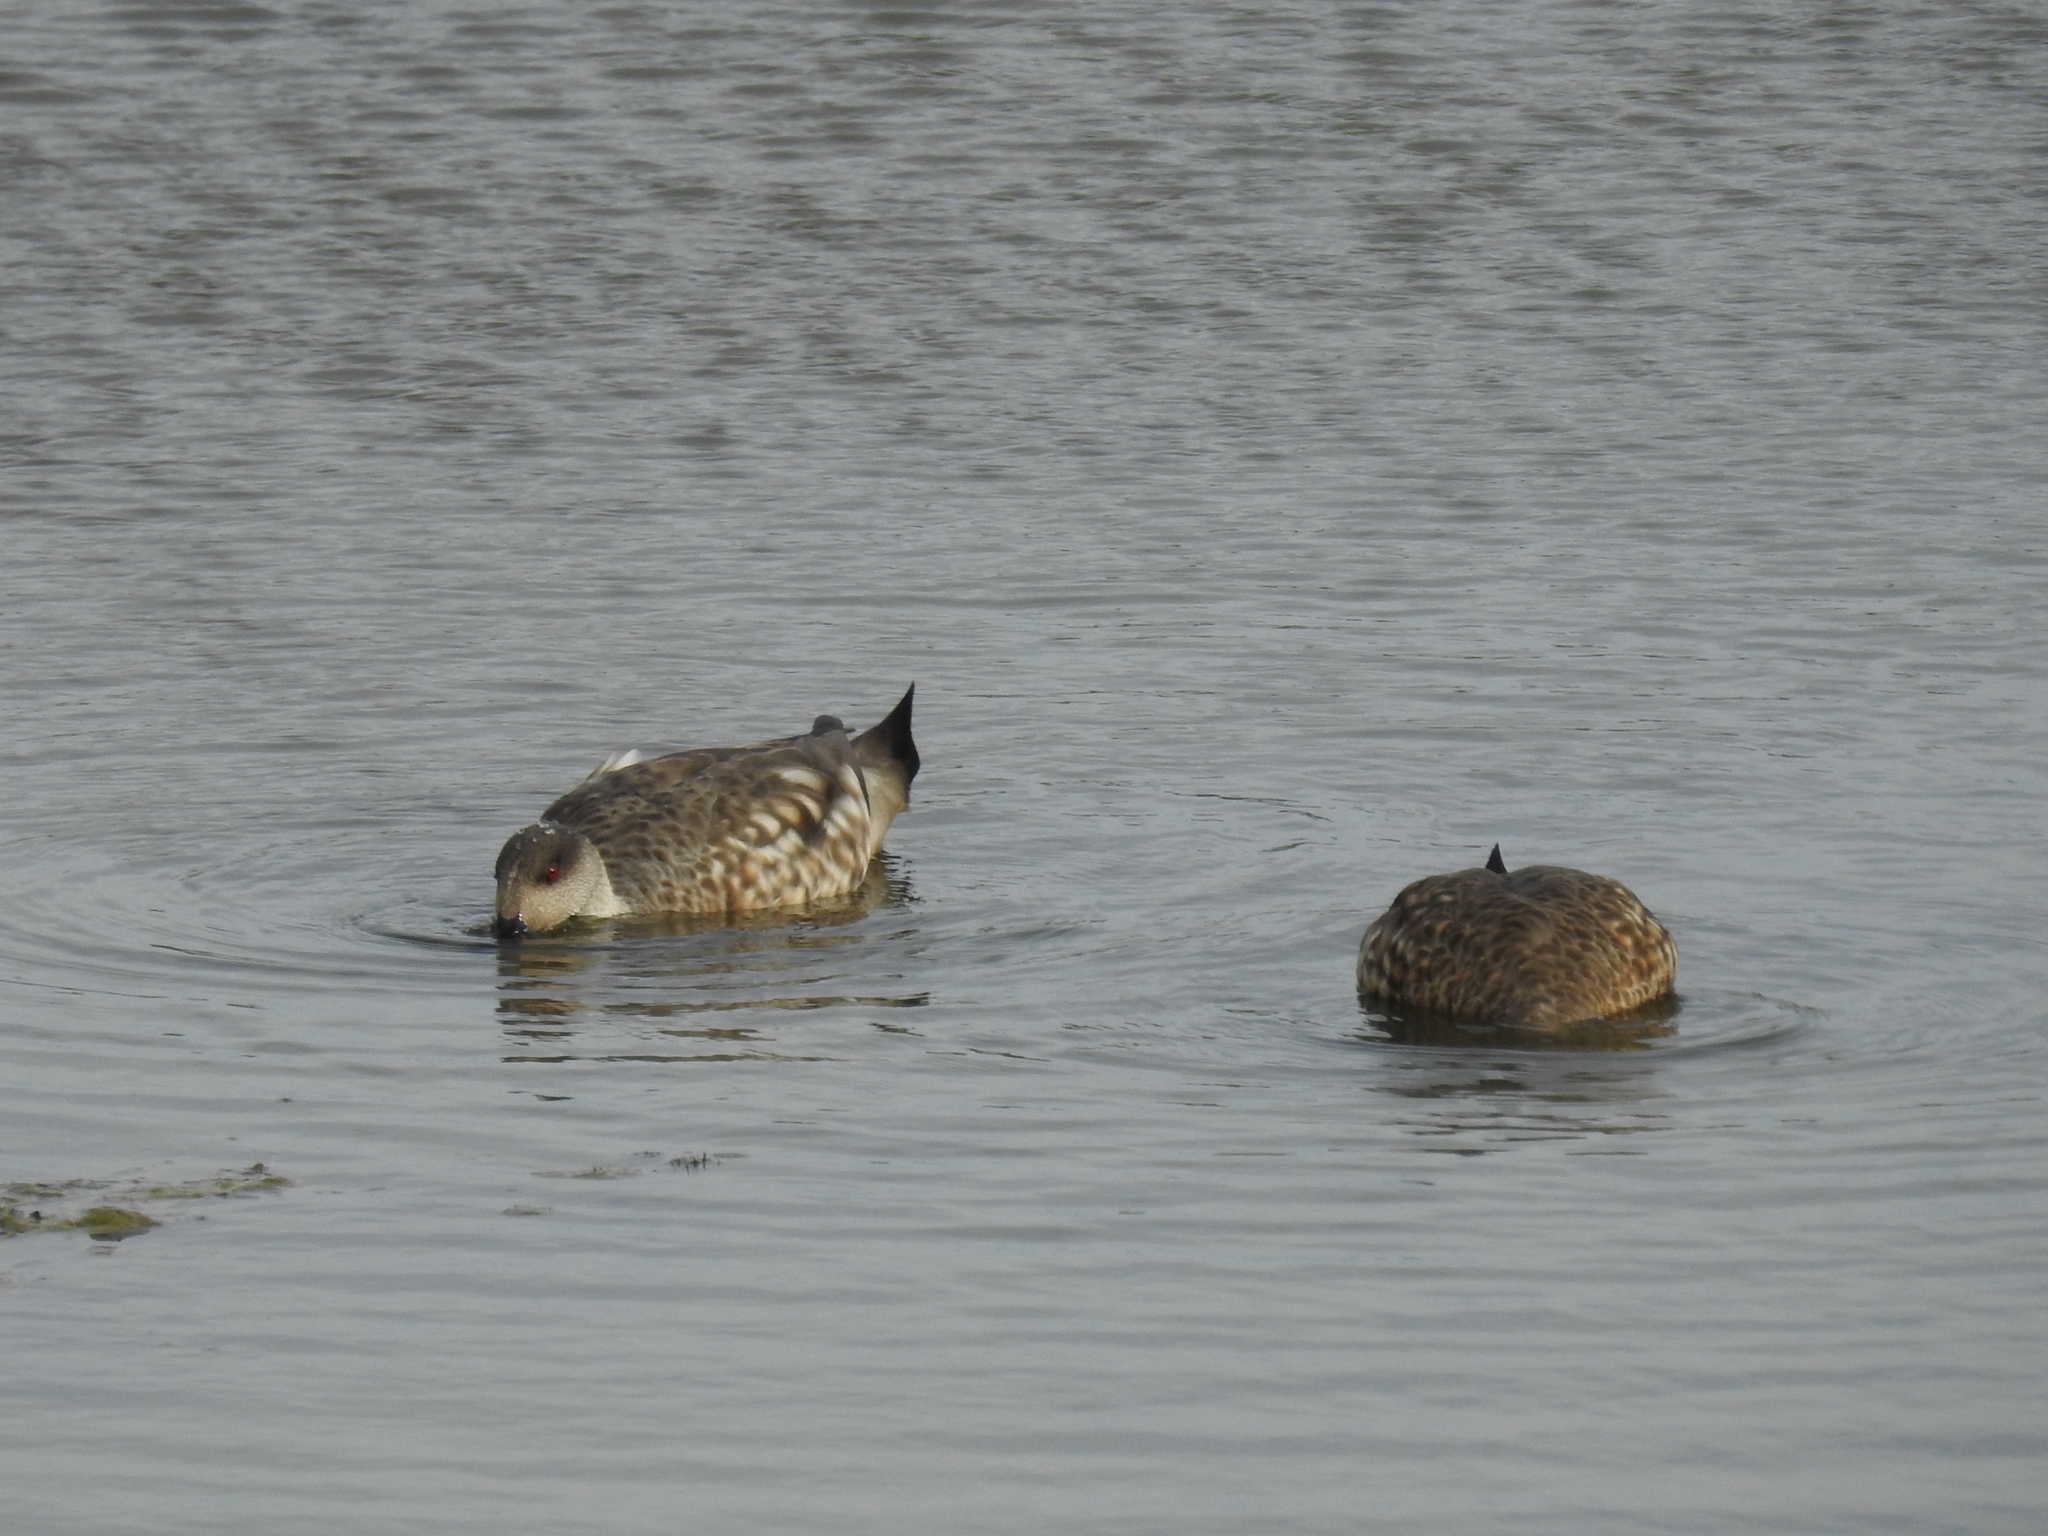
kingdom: Animalia
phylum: Chordata
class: Aves
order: Anseriformes
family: Anatidae
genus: Lophonetta
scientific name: Lophonetta specularioides
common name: Crested duck
